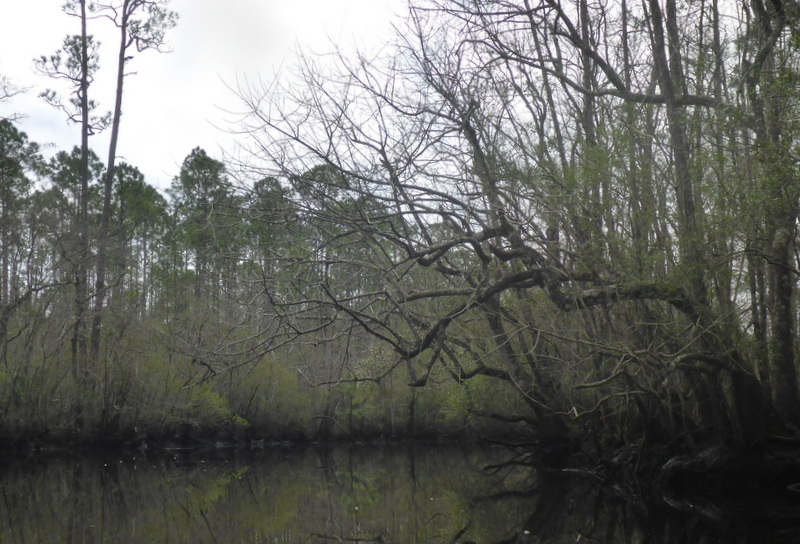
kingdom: Plantae
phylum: Tracheophyta
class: Magnoliopsida
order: Cornales
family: Nyssaceae
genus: Nyssa
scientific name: Nyssa ogeche
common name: Ogeechee tupelo
